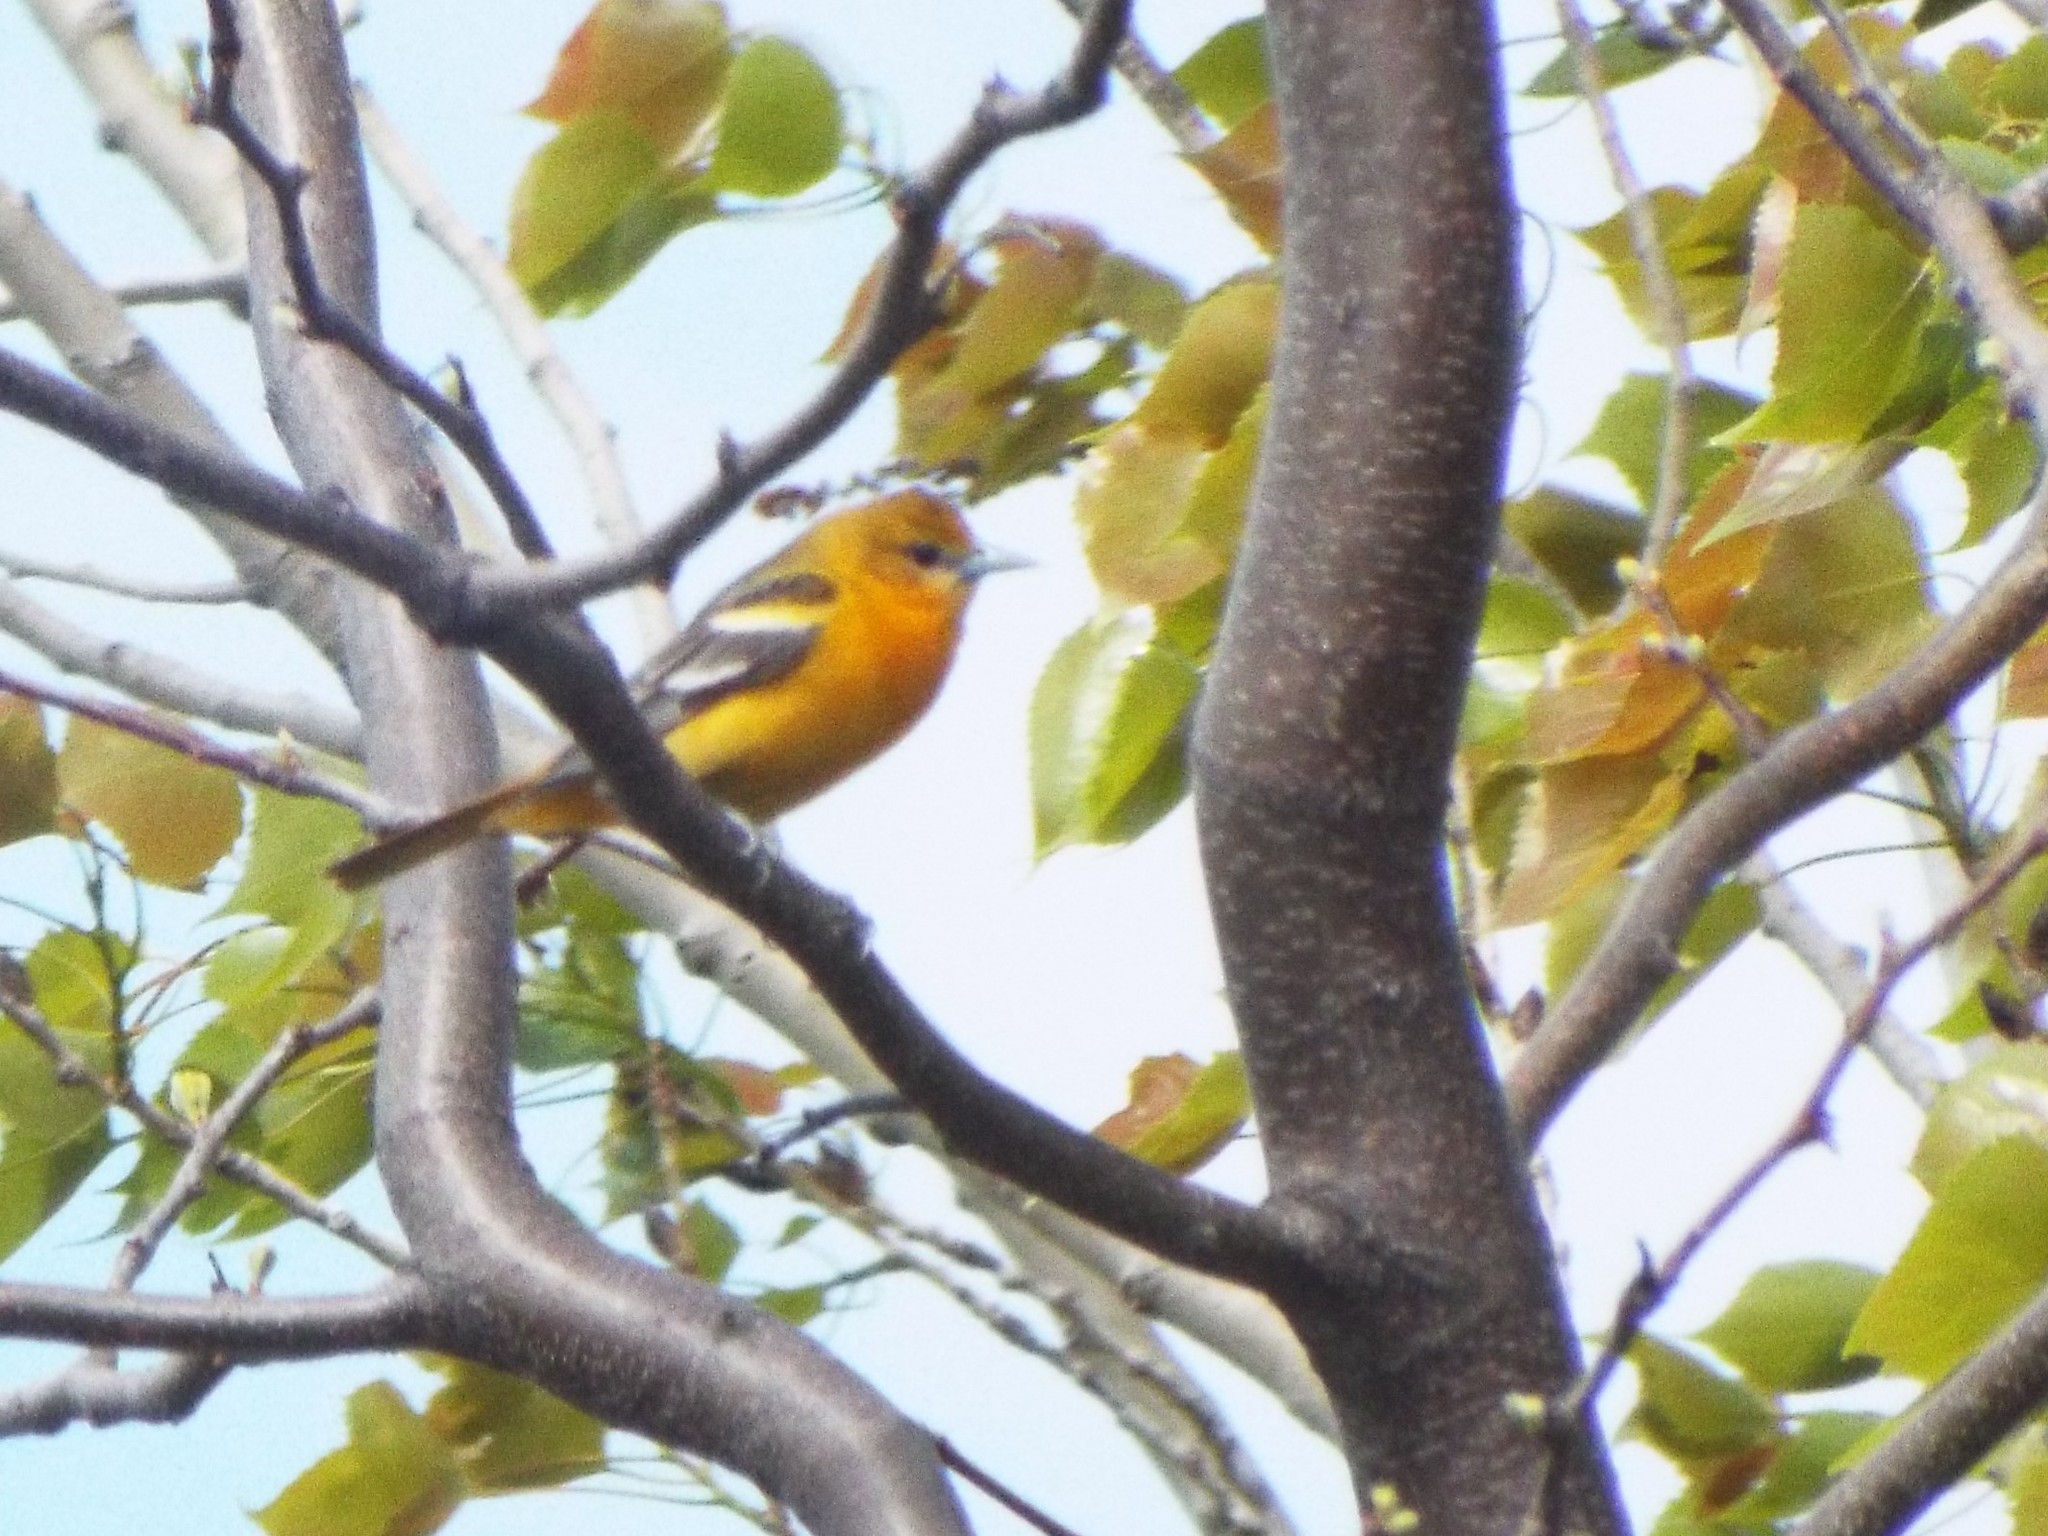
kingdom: Animalia
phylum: Chordata
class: Aves
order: Passeriformes
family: Icteridae
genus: Icterus
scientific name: Icterus galbula
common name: Baltimore oriole
